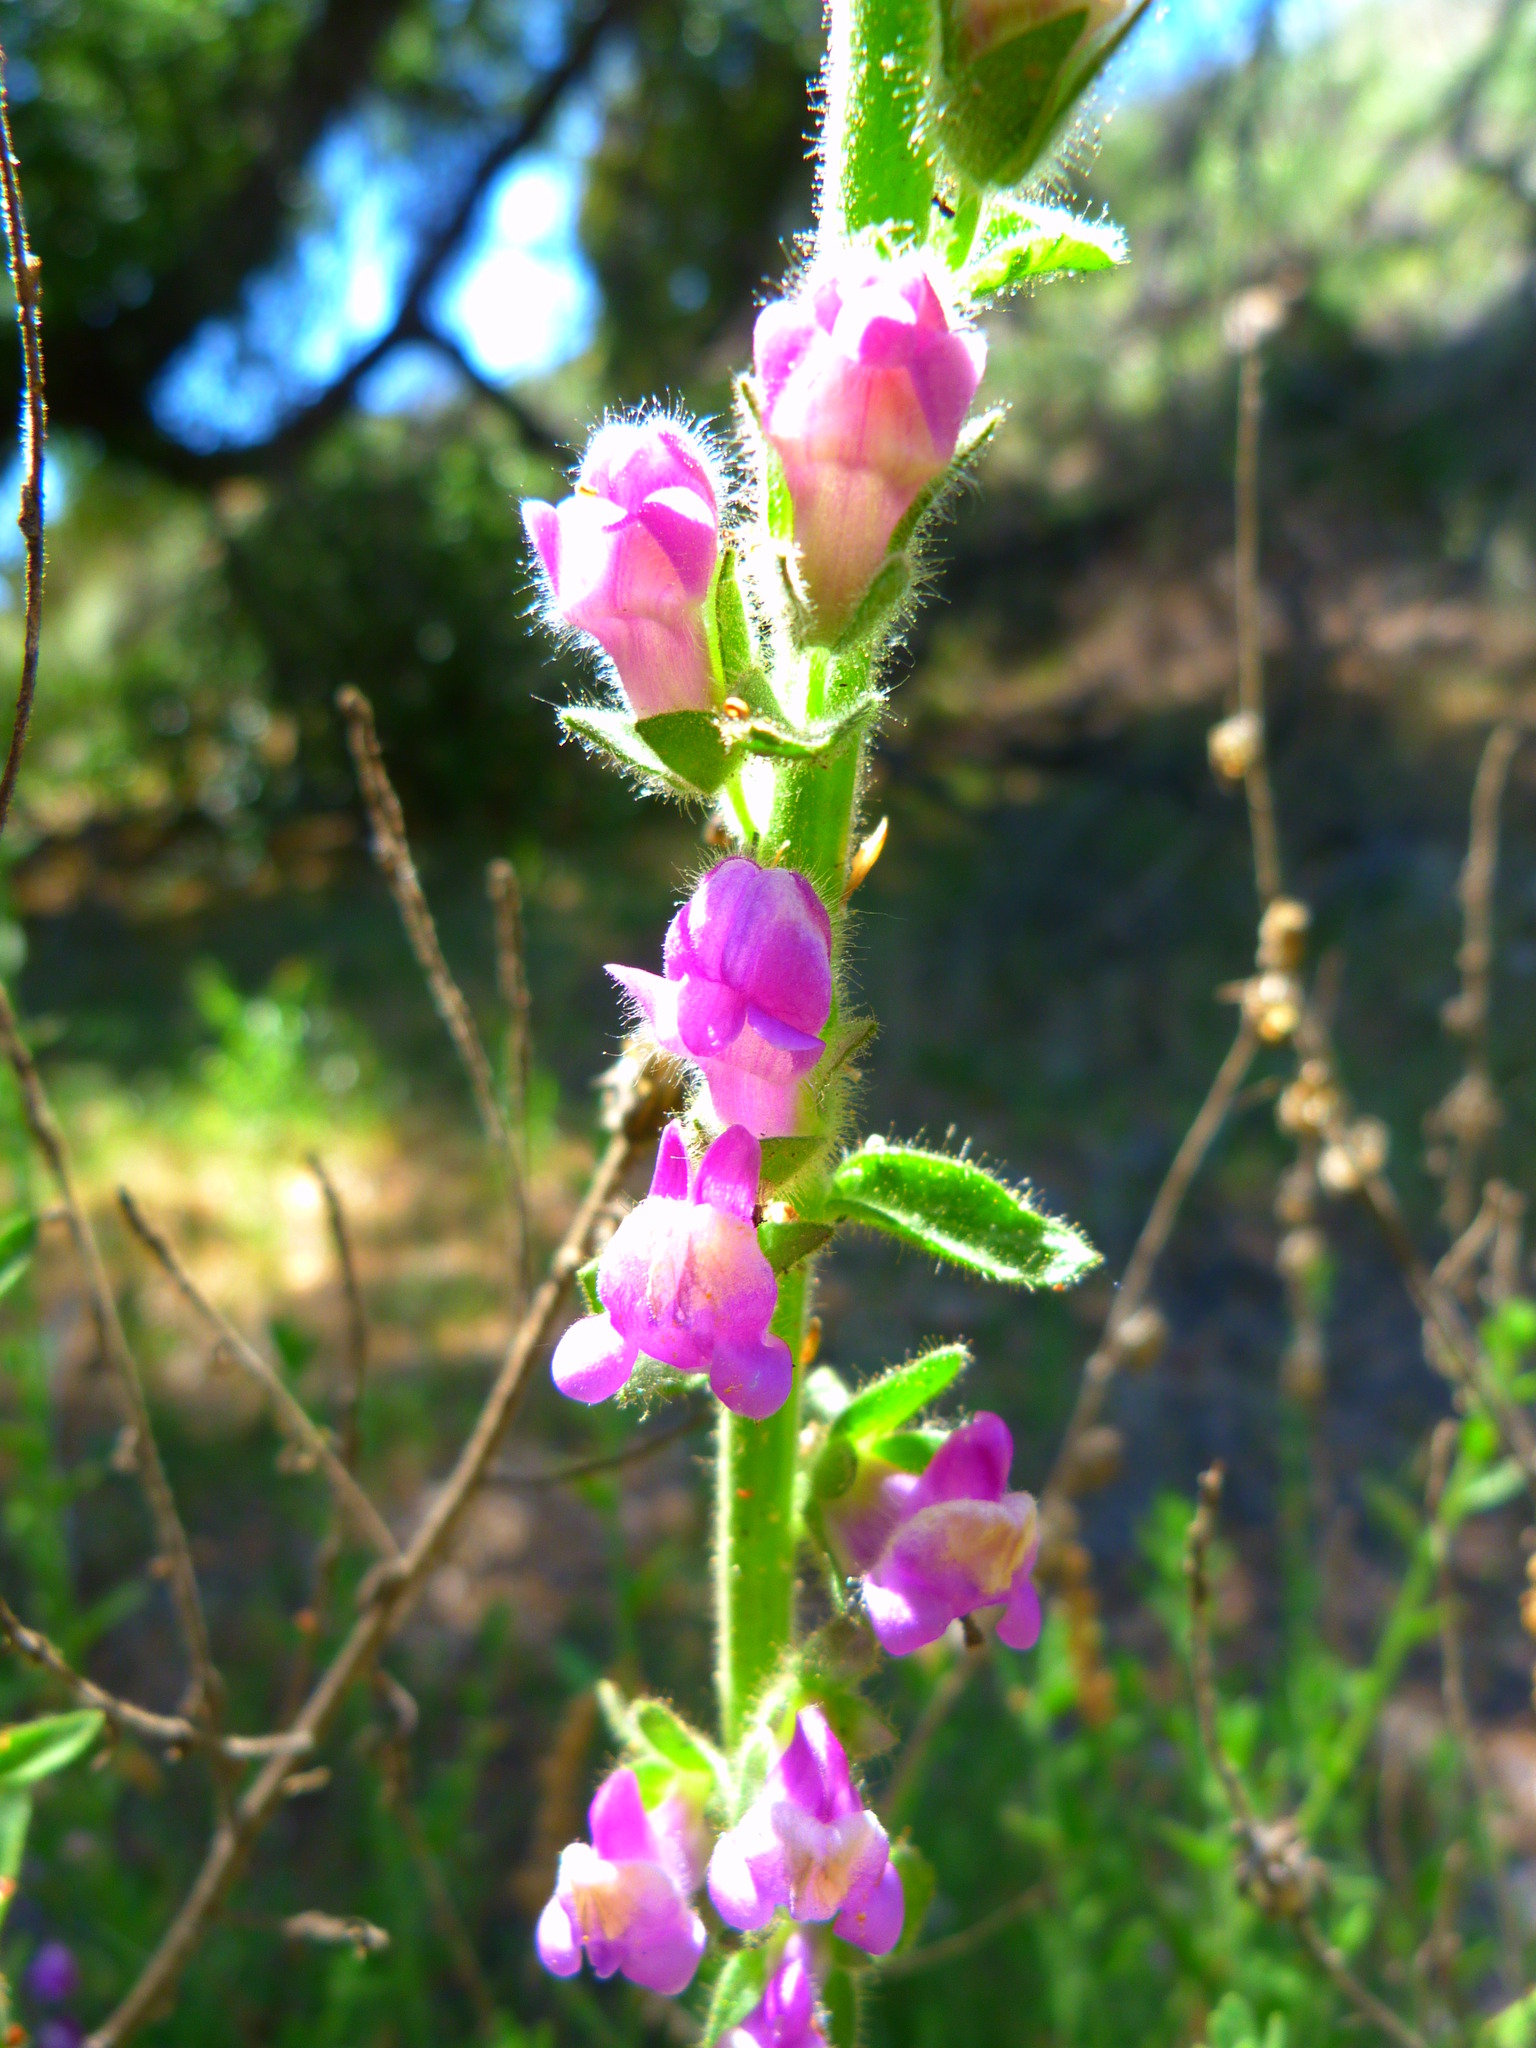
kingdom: Plantae
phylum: Tracheophyta
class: Magnoliopsida
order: Lamiales
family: Plantaginaceae
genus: Sairocarpus
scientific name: Sairocarpus multiflorus
